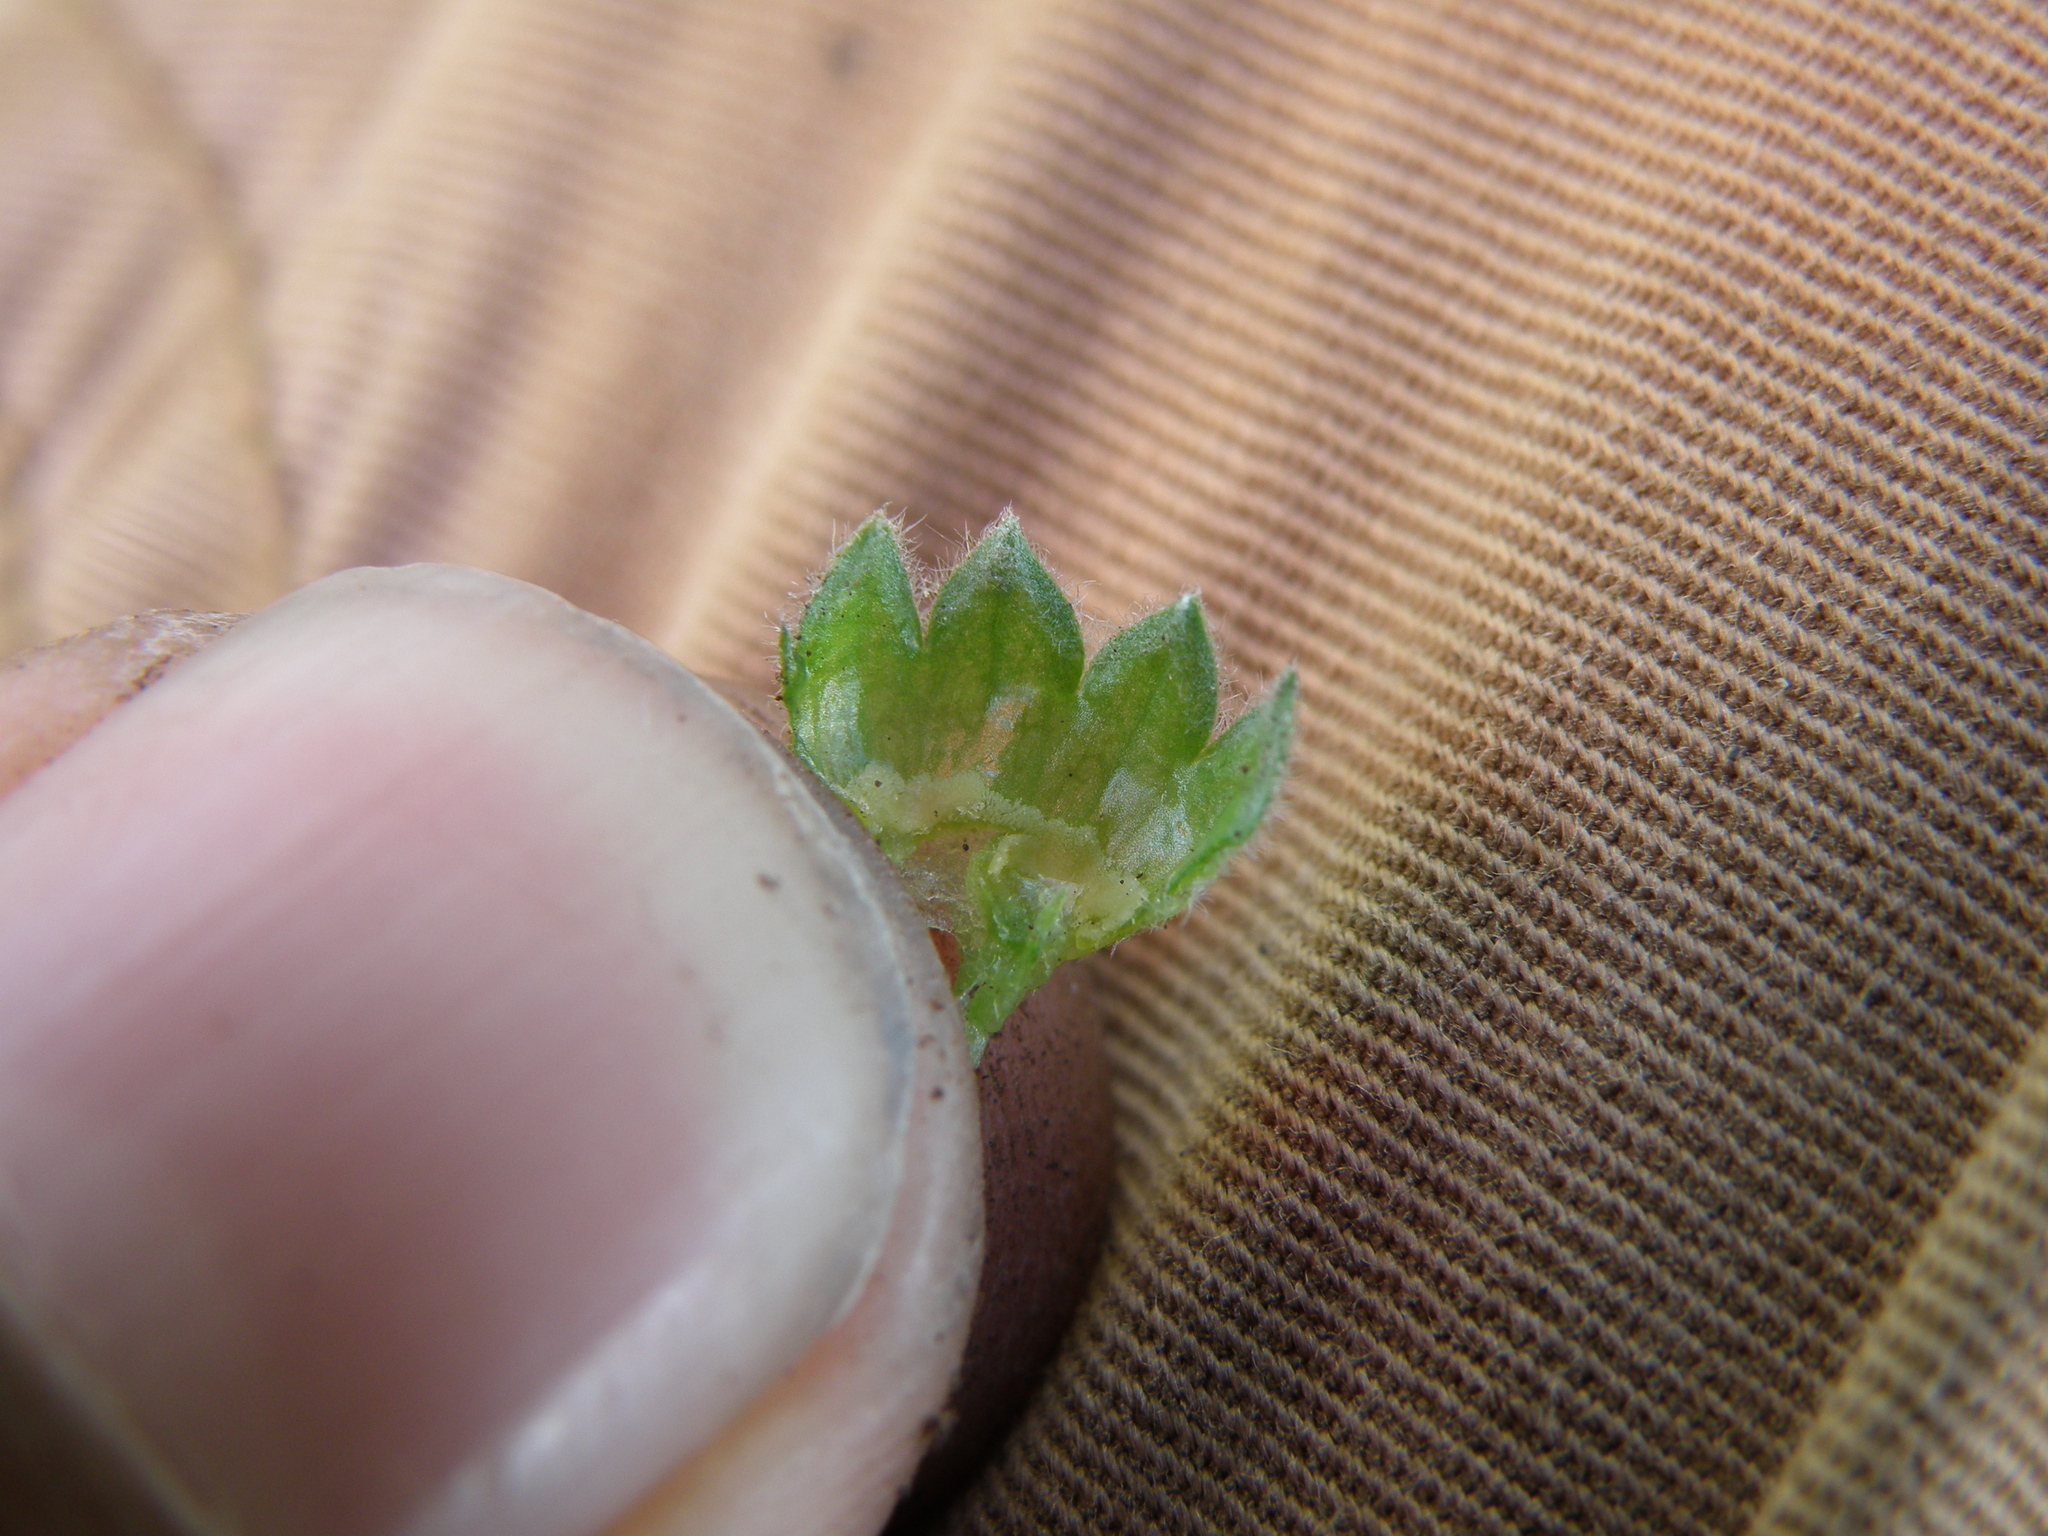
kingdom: Plantae
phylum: Tracheophyta
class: Magnoliopsida
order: Malvales
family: Malvaceae
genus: Acaulimalva
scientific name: Acaulimalva crenata
